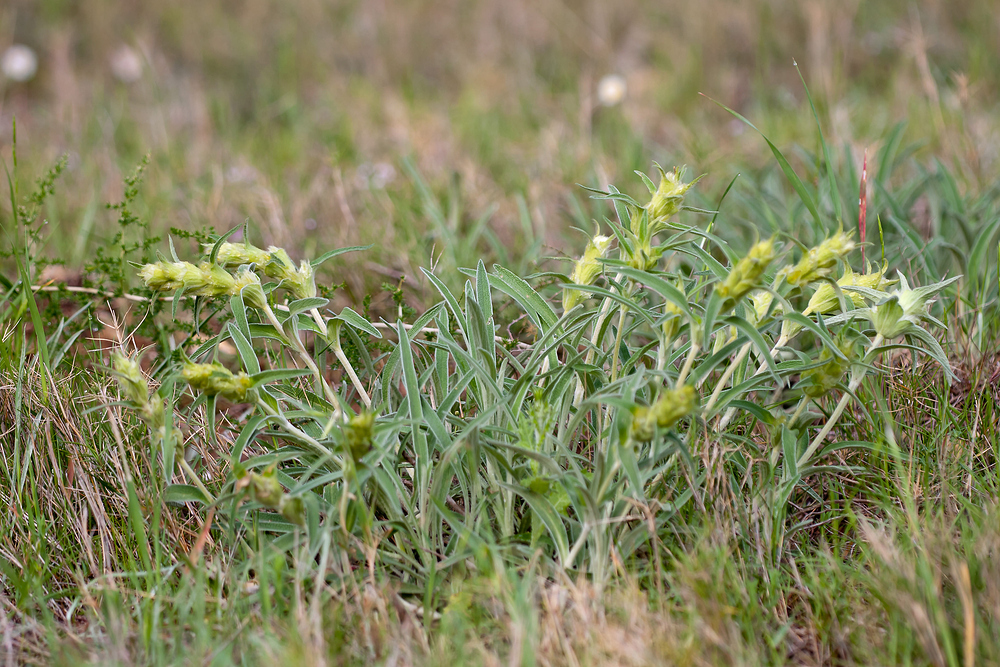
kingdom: Plantae
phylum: Tracheophyta
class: Magnoliopsida
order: Lamiales
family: Lamiaceae
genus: Phlomis
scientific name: Phlomis lychnitis
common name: Lampwickplant
